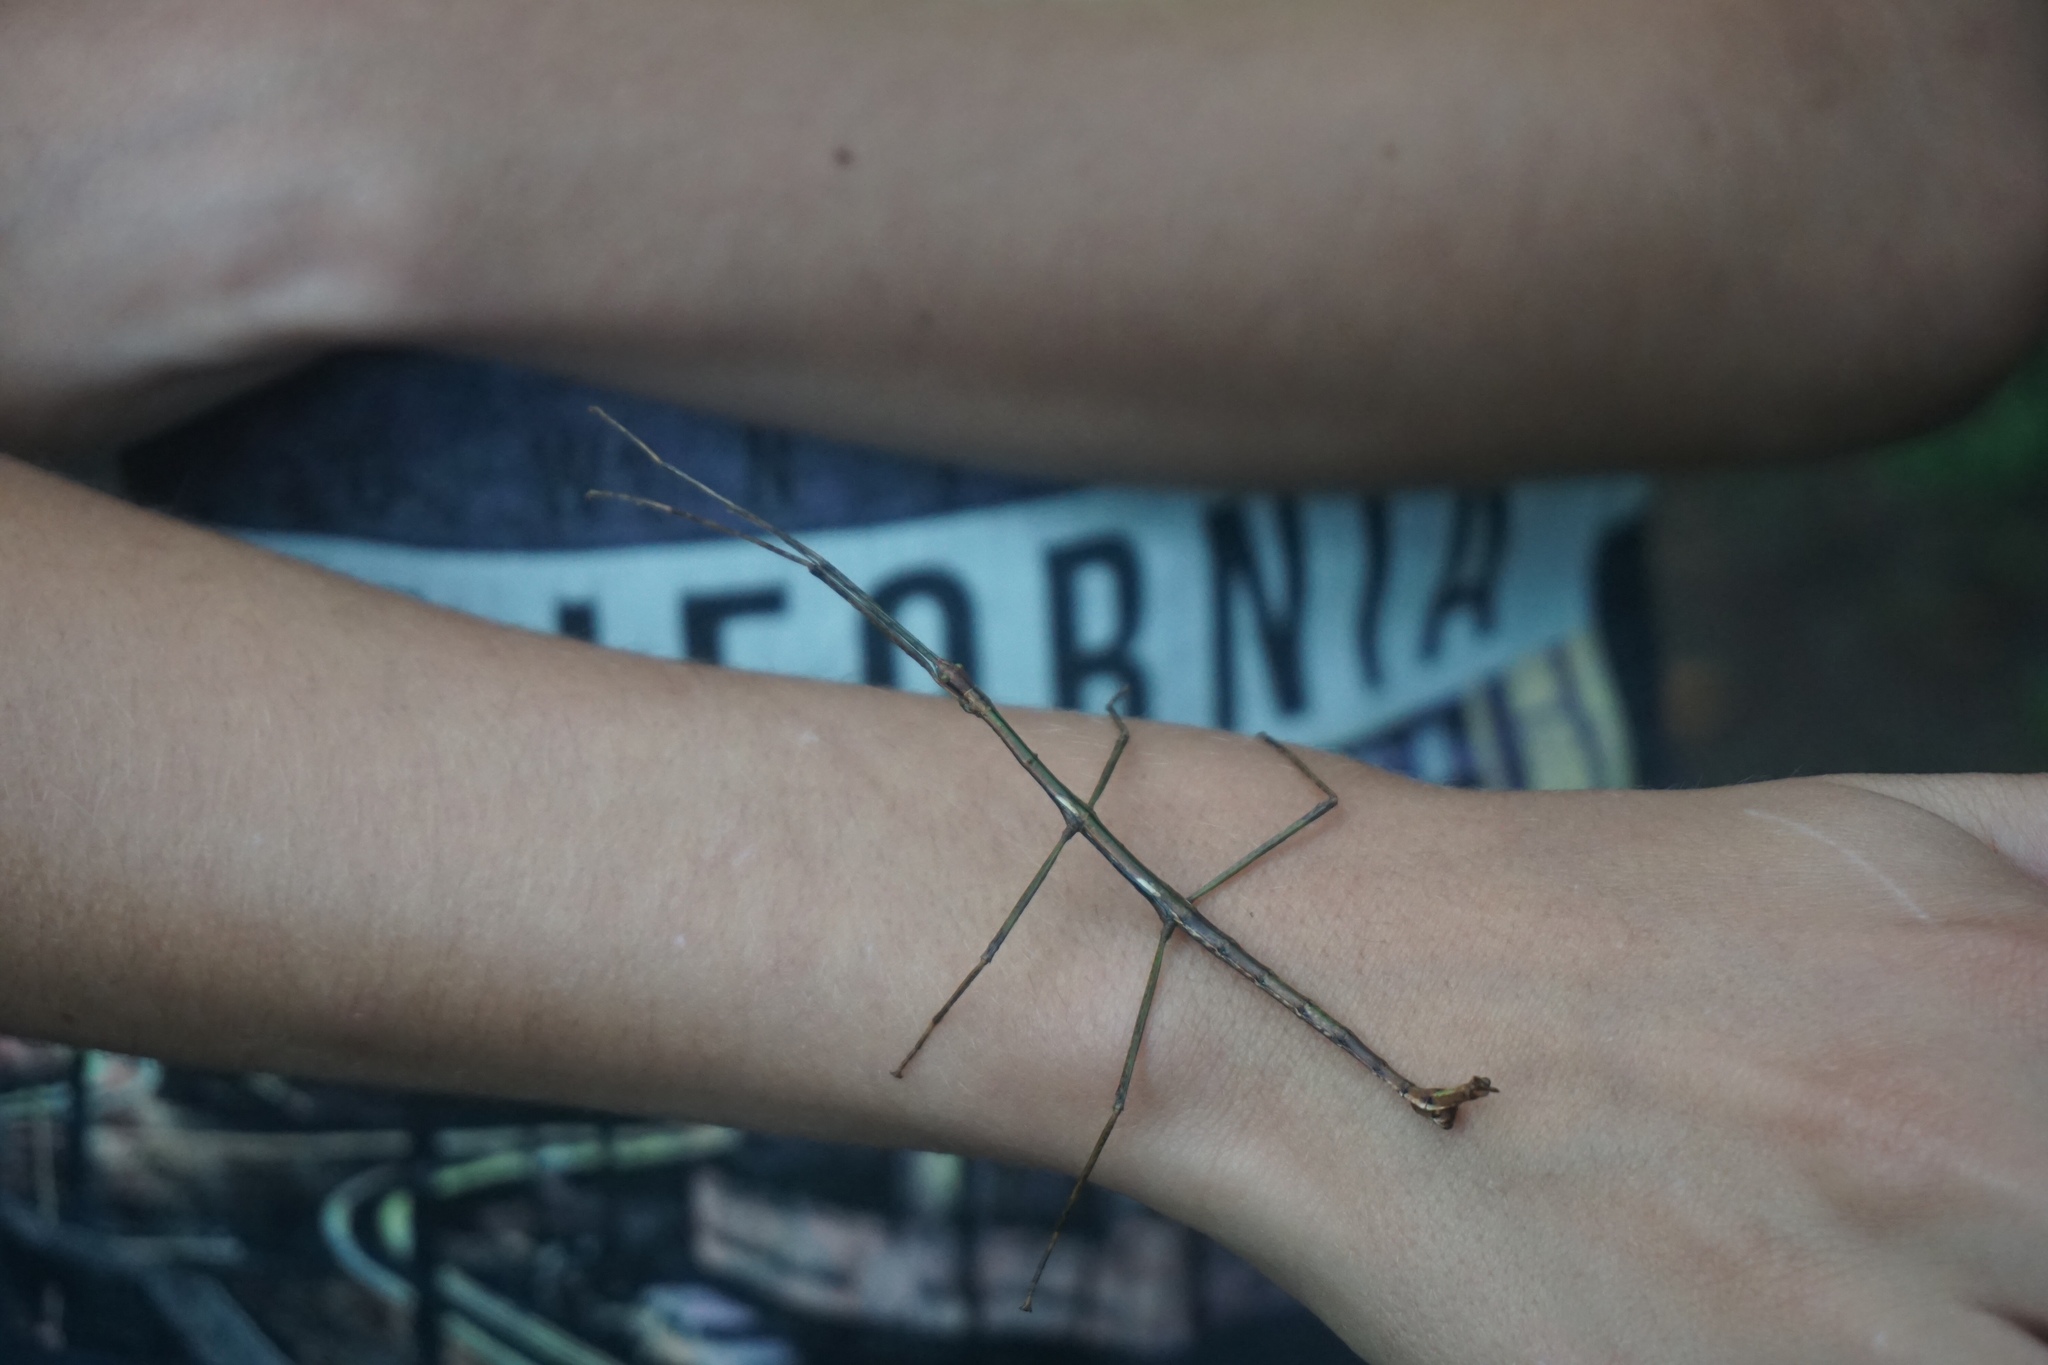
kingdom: Animalia
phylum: Arthropoda
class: Insecta
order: Phasmida
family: Phasmatidae
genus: Clitarchus
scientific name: Clitarchus hookeri
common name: Smooth stick insect
